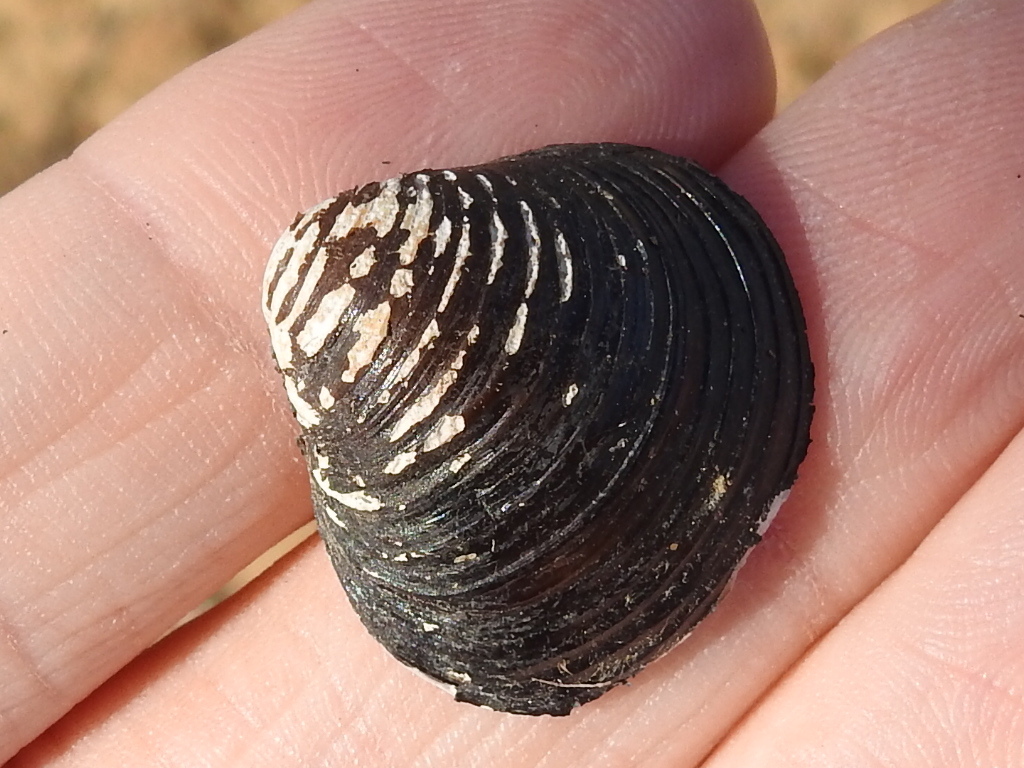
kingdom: Animalia
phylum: Mollusca
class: Bivalvia
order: Venerida
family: Cyrenidae
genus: Corbicula
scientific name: Corbicula fluminea
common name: Asian clam
